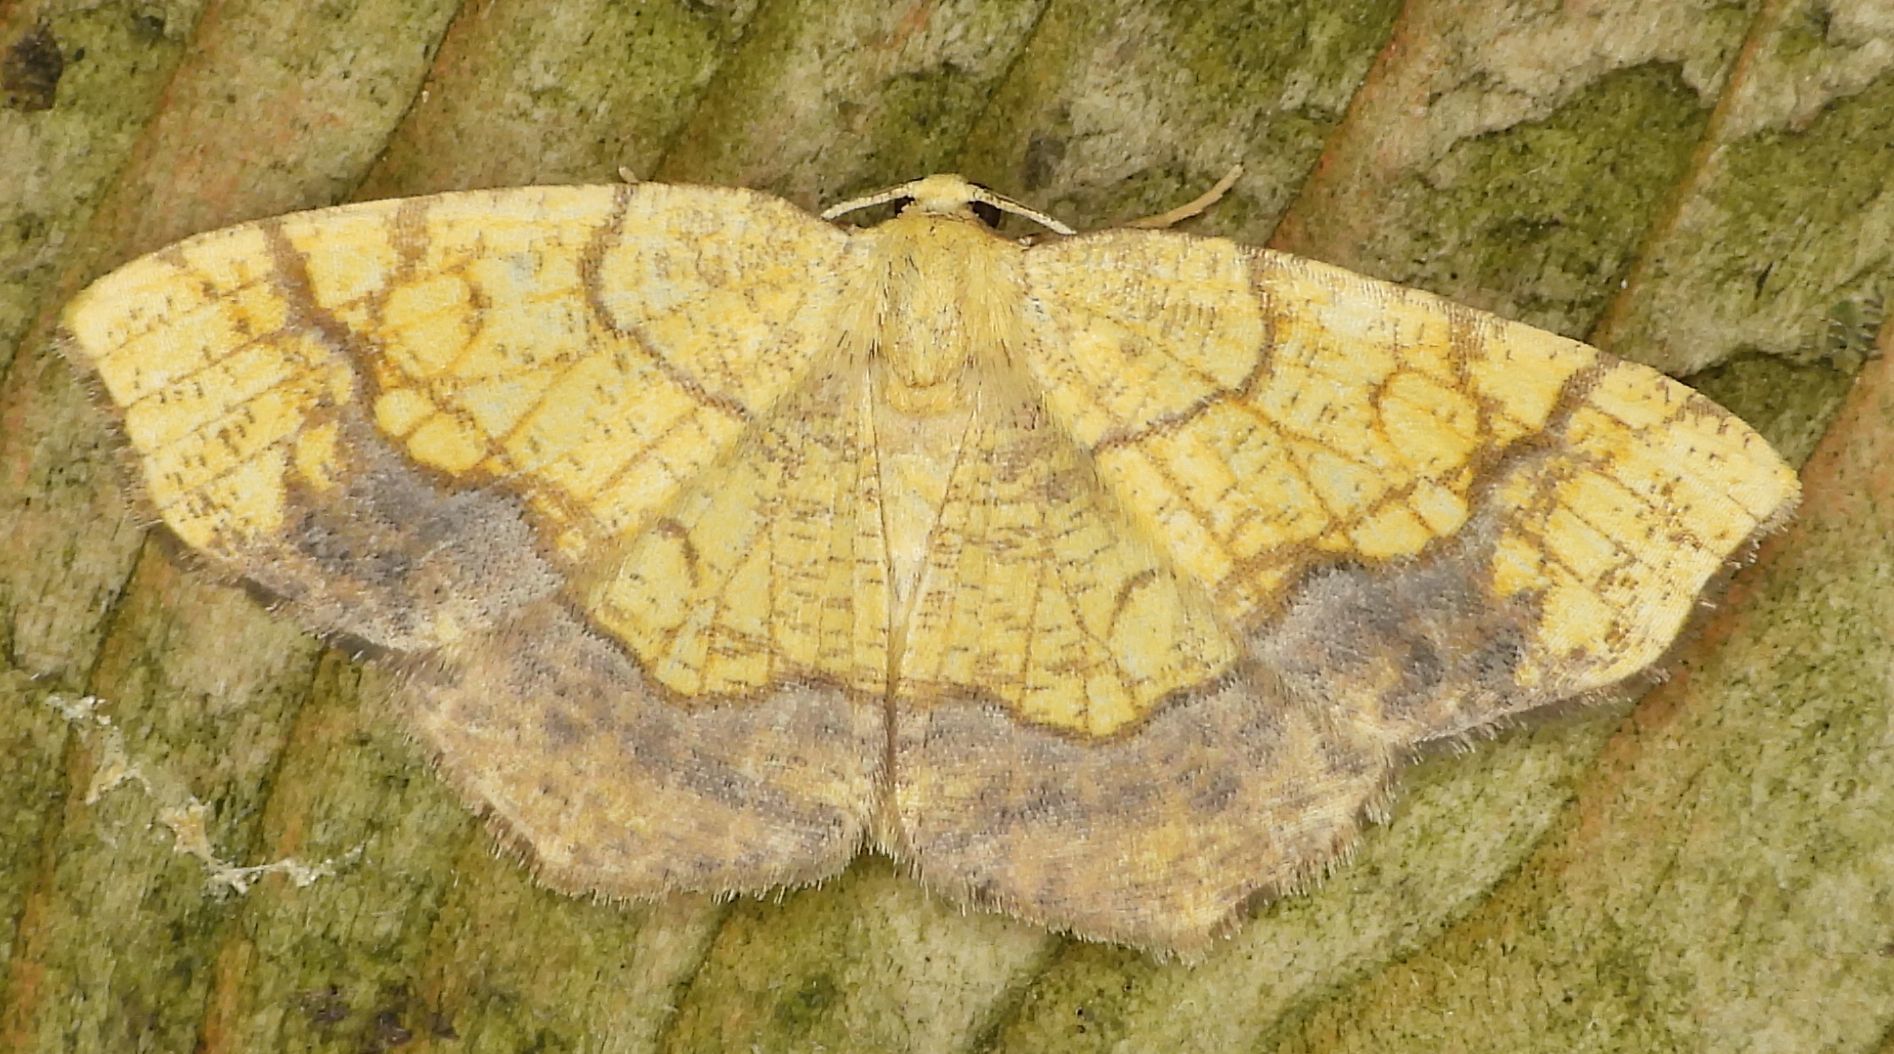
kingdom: Animalia
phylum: Arthropoda
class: Insecta
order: Lepidoptera
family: Geometridae
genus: Nematocampa
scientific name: Nematocampa resistaria
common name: Horned spanworm moth
